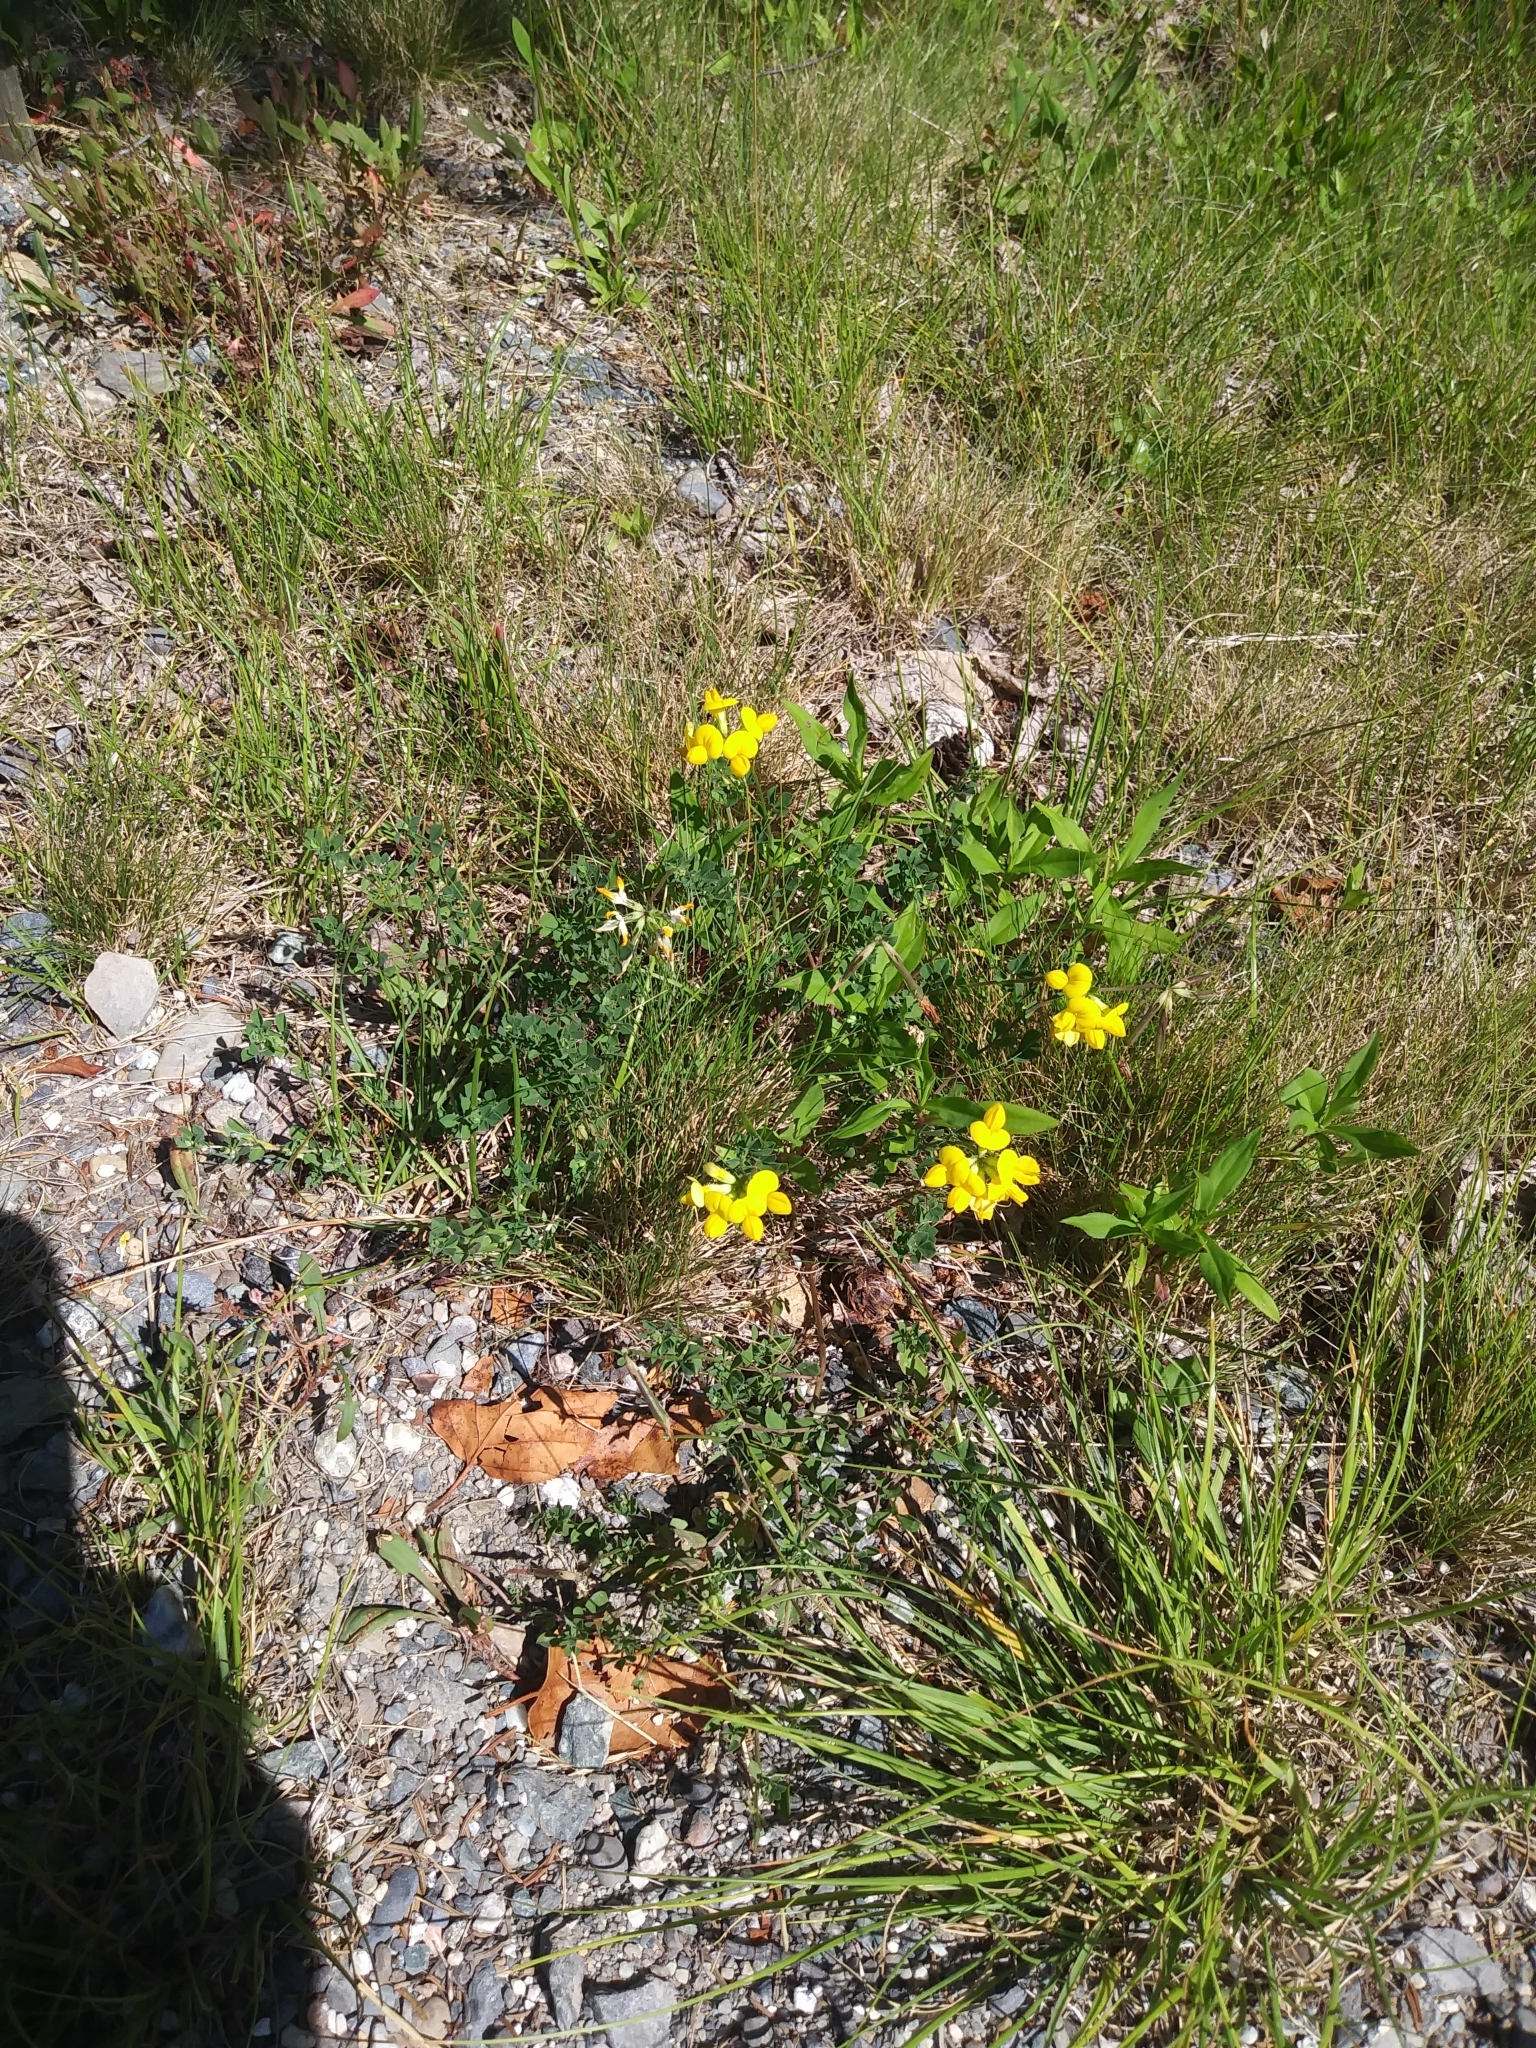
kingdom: Plantae
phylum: Tracheophyta
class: Magnoliopsida
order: Fabales
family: Fabaceae
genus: Lotus
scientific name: Lotus corniculatus
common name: Common bird's-foot-trefoil
